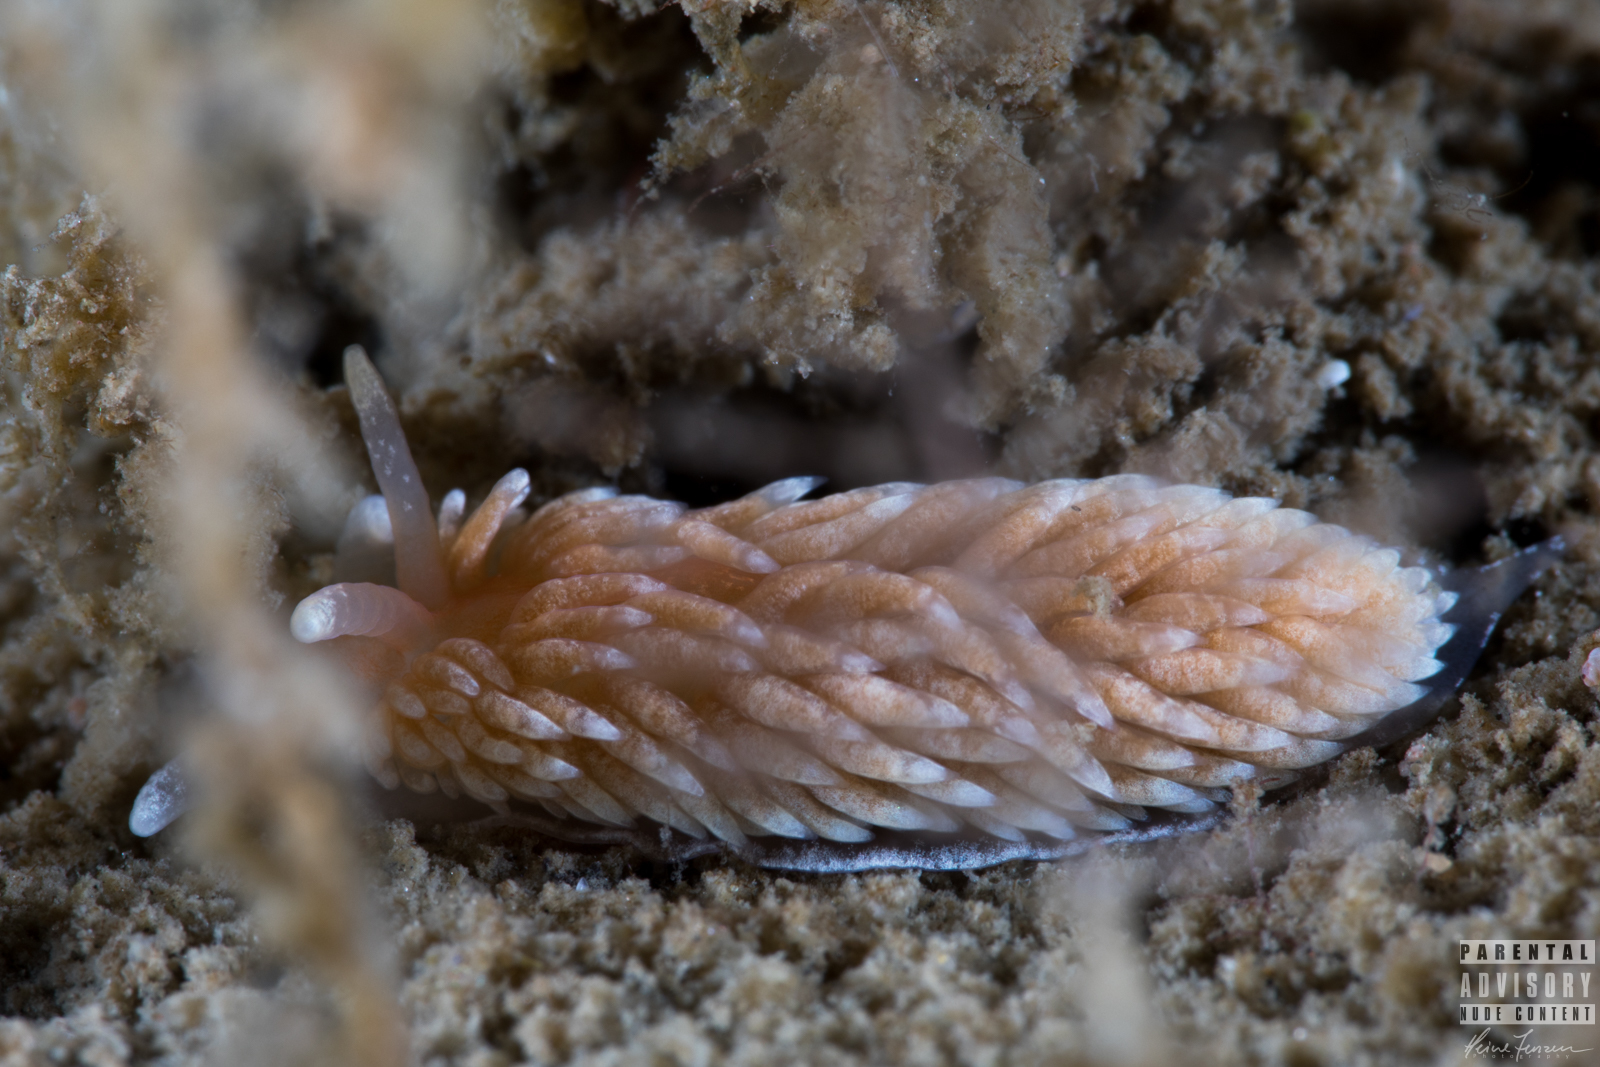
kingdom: Animalia
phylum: Mollusca
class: Gastropoda
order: Nudibranchia
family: Aeolidiidae
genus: Aeolidiella
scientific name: Aeolidiella glauca
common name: Orange-brown aeolid
